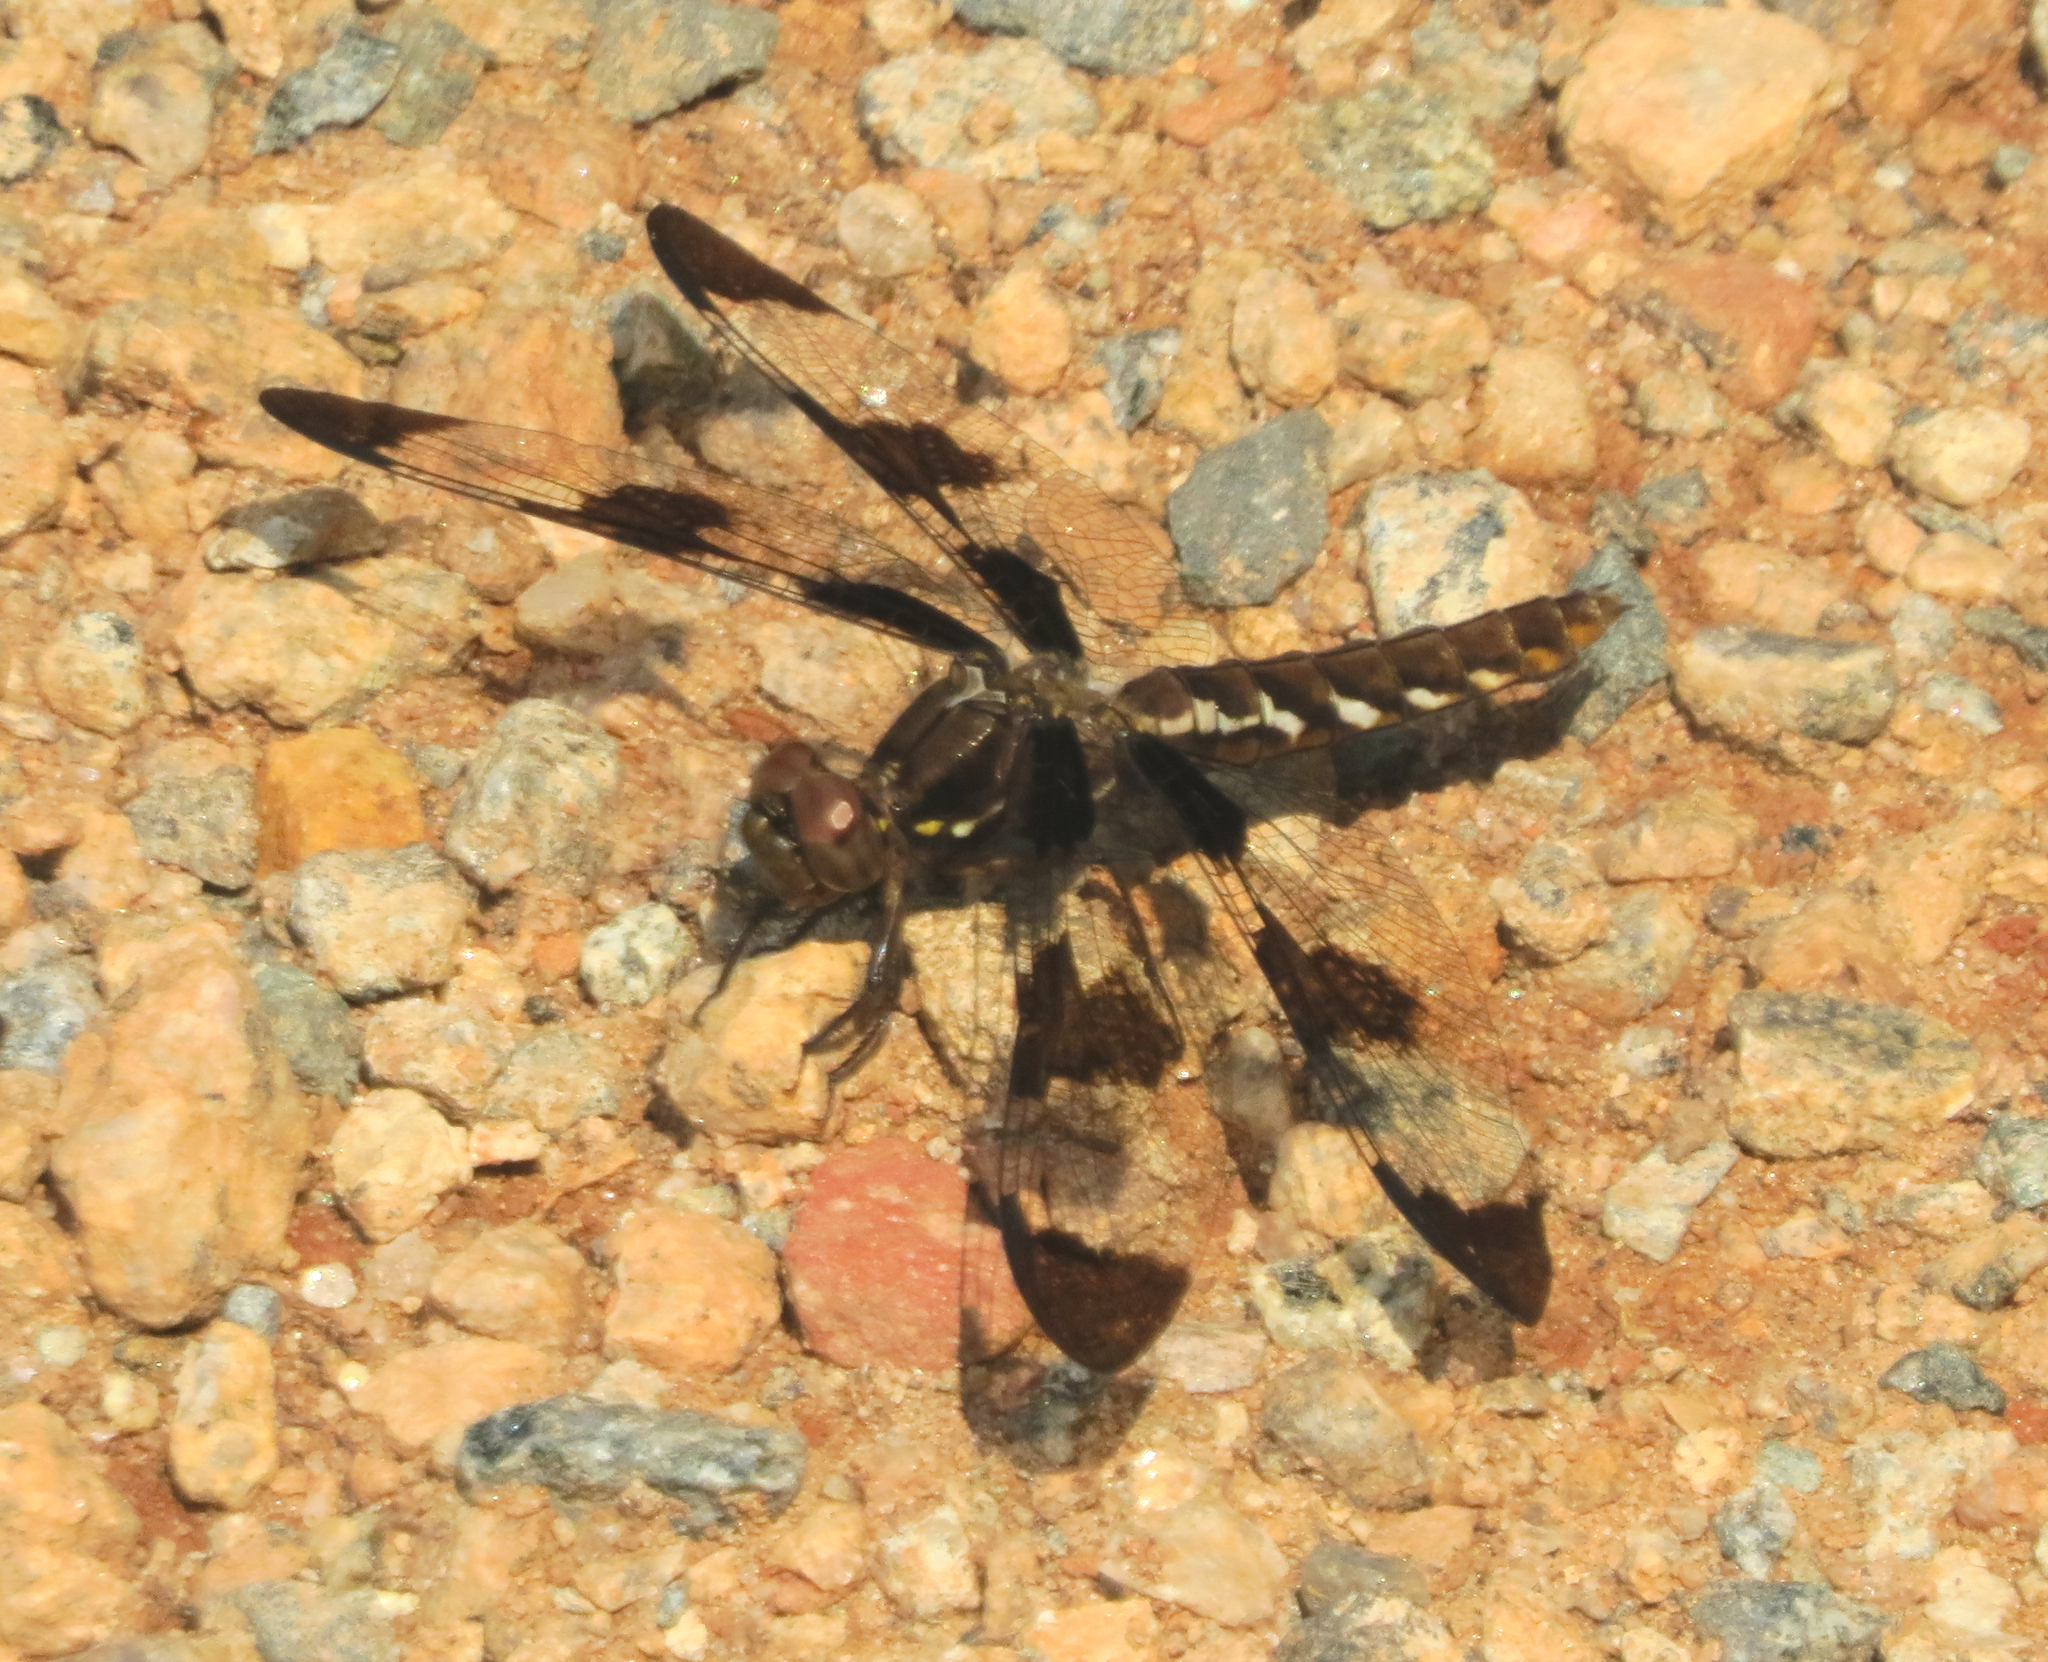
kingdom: Animalia
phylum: Arthropoda
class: Insecta
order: Odonata
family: Libellulidae
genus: Plathemis
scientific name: Plathemis lydia
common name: Common whitetail
